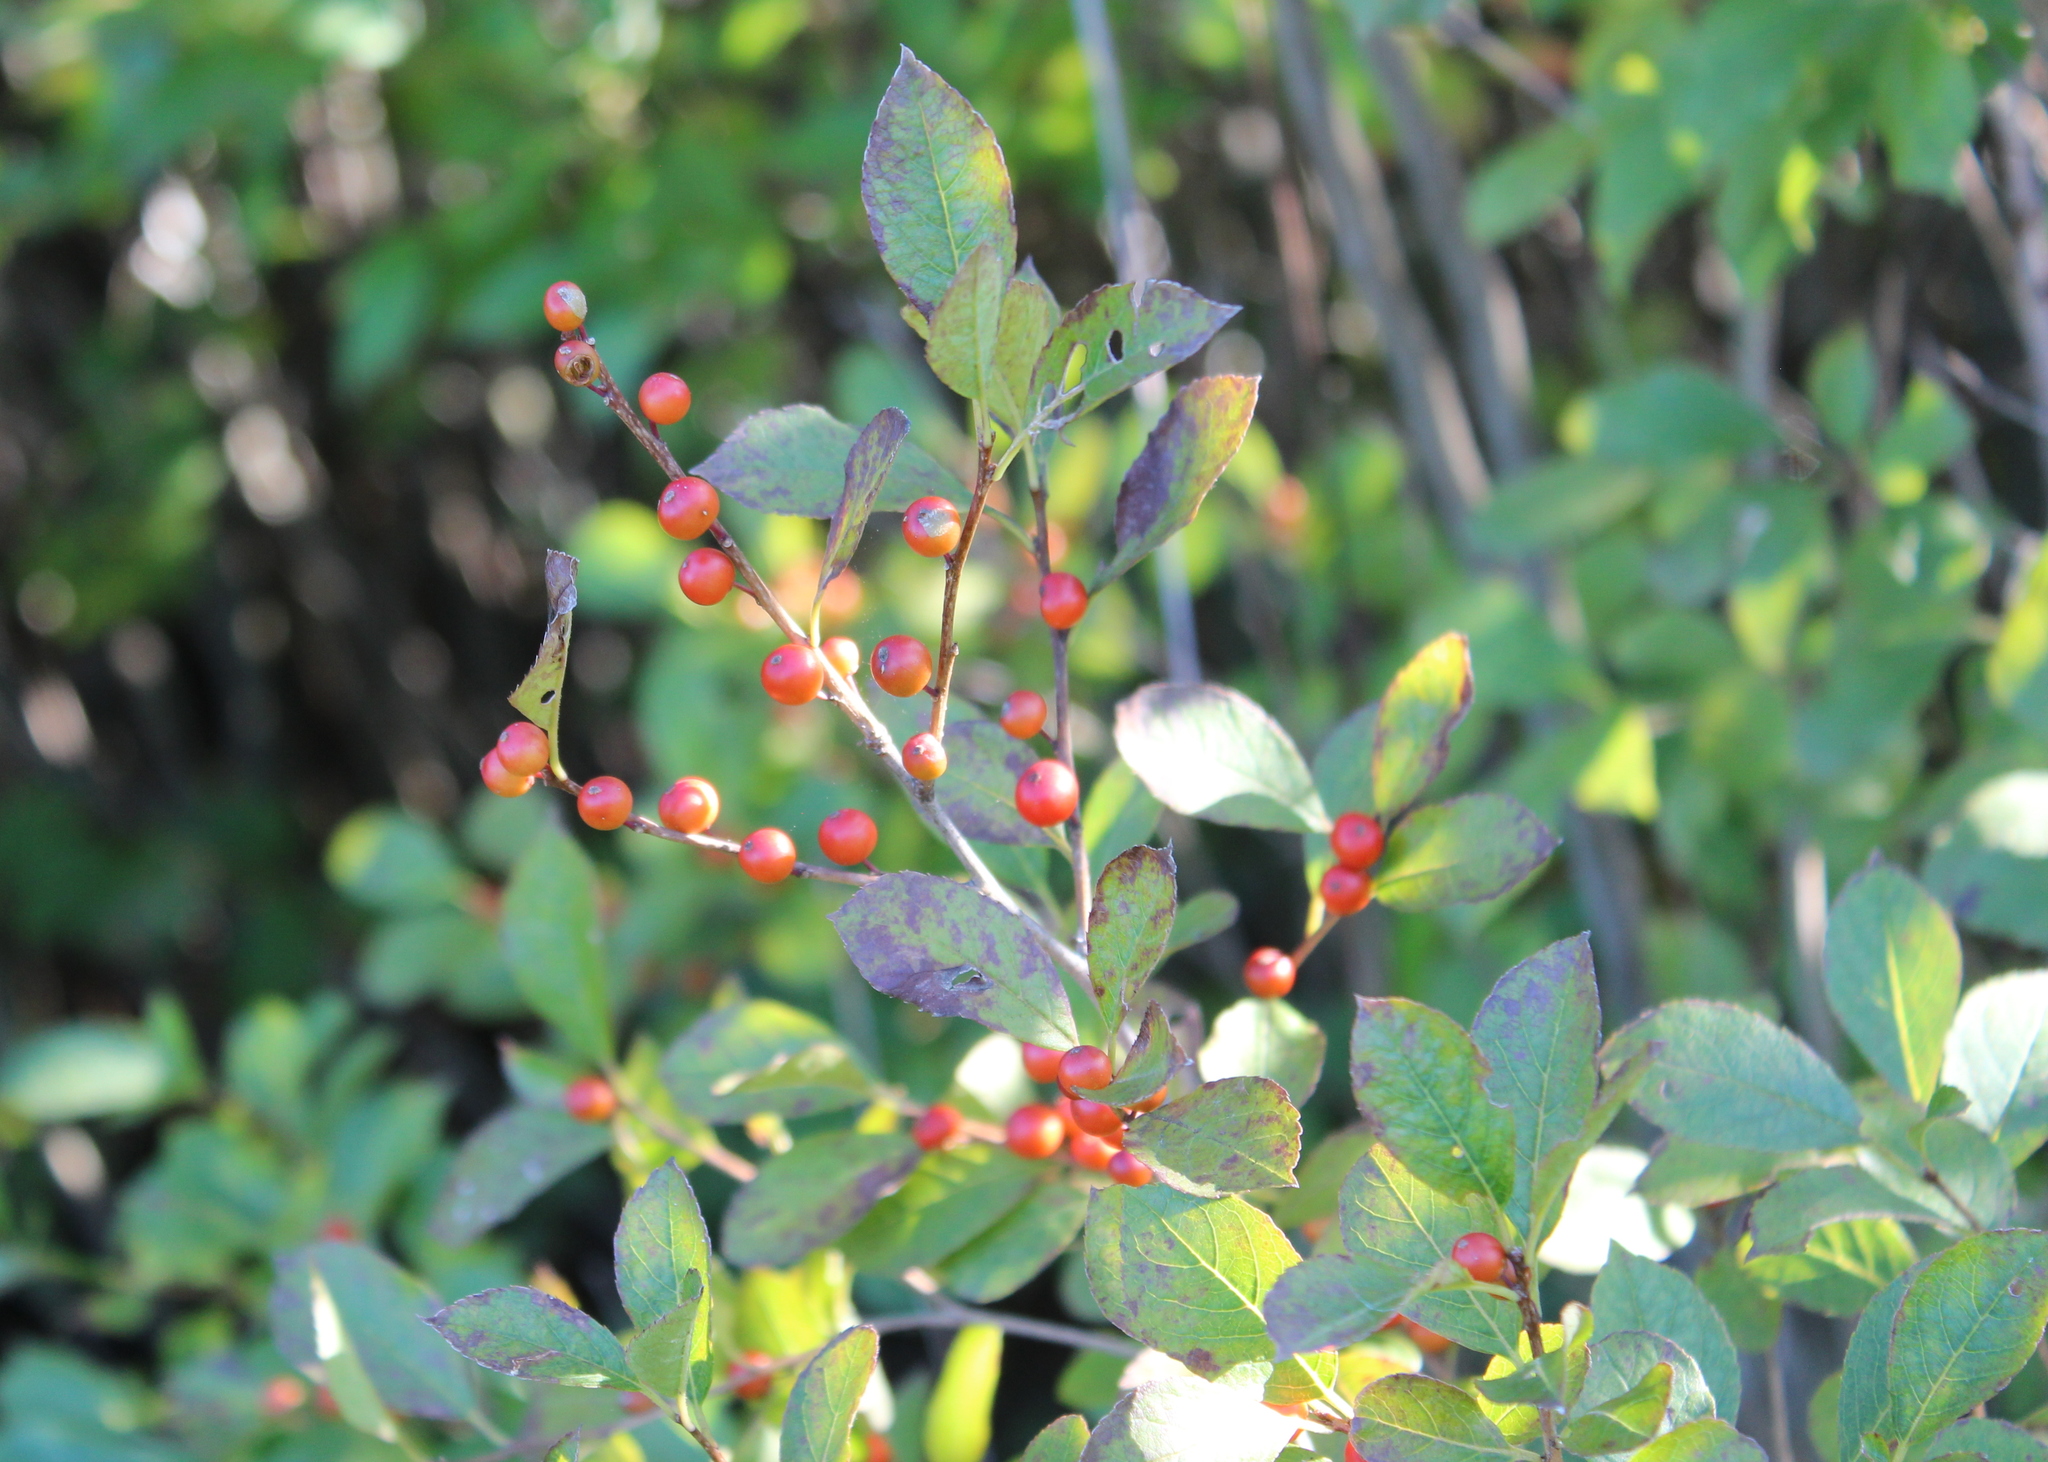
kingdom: Plantae
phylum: Tracheophyta
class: Magnoliopsida
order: Aquifoliales
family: Aquifoliaceae
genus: Ilex
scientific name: Ilex verticillata
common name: Virginia winterberry
